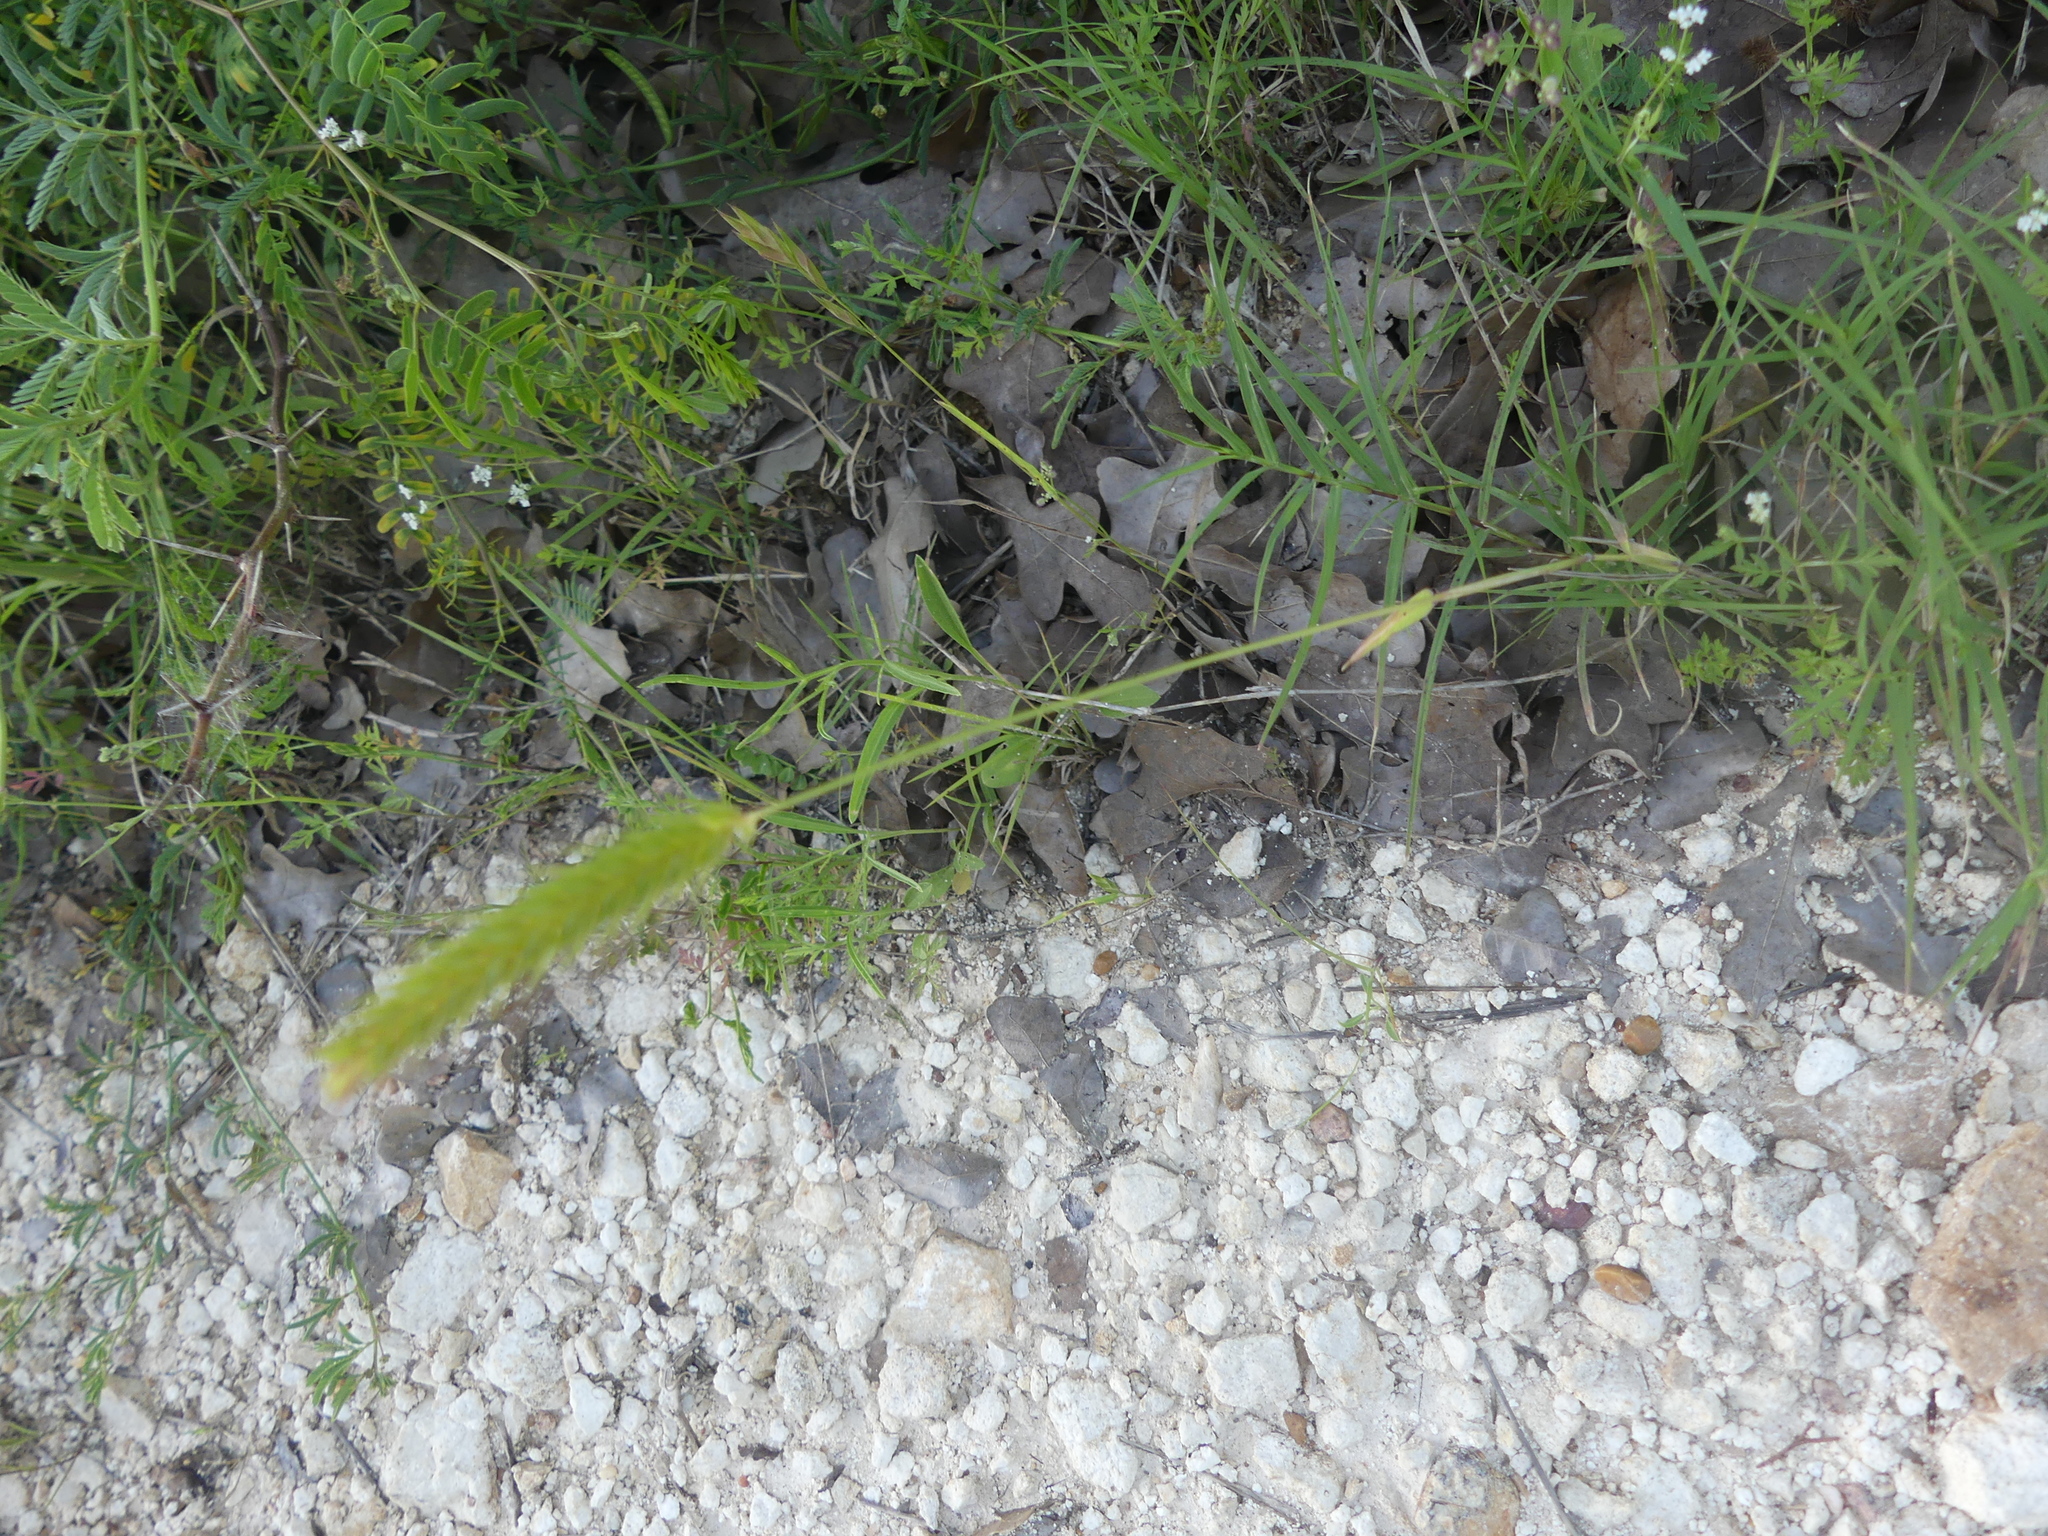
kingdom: Plantae
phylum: Tracheophyta
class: Liliopsida
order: Poales
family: Poaceae
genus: Hordeum
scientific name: Hordeum pusillum
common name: Little barley
